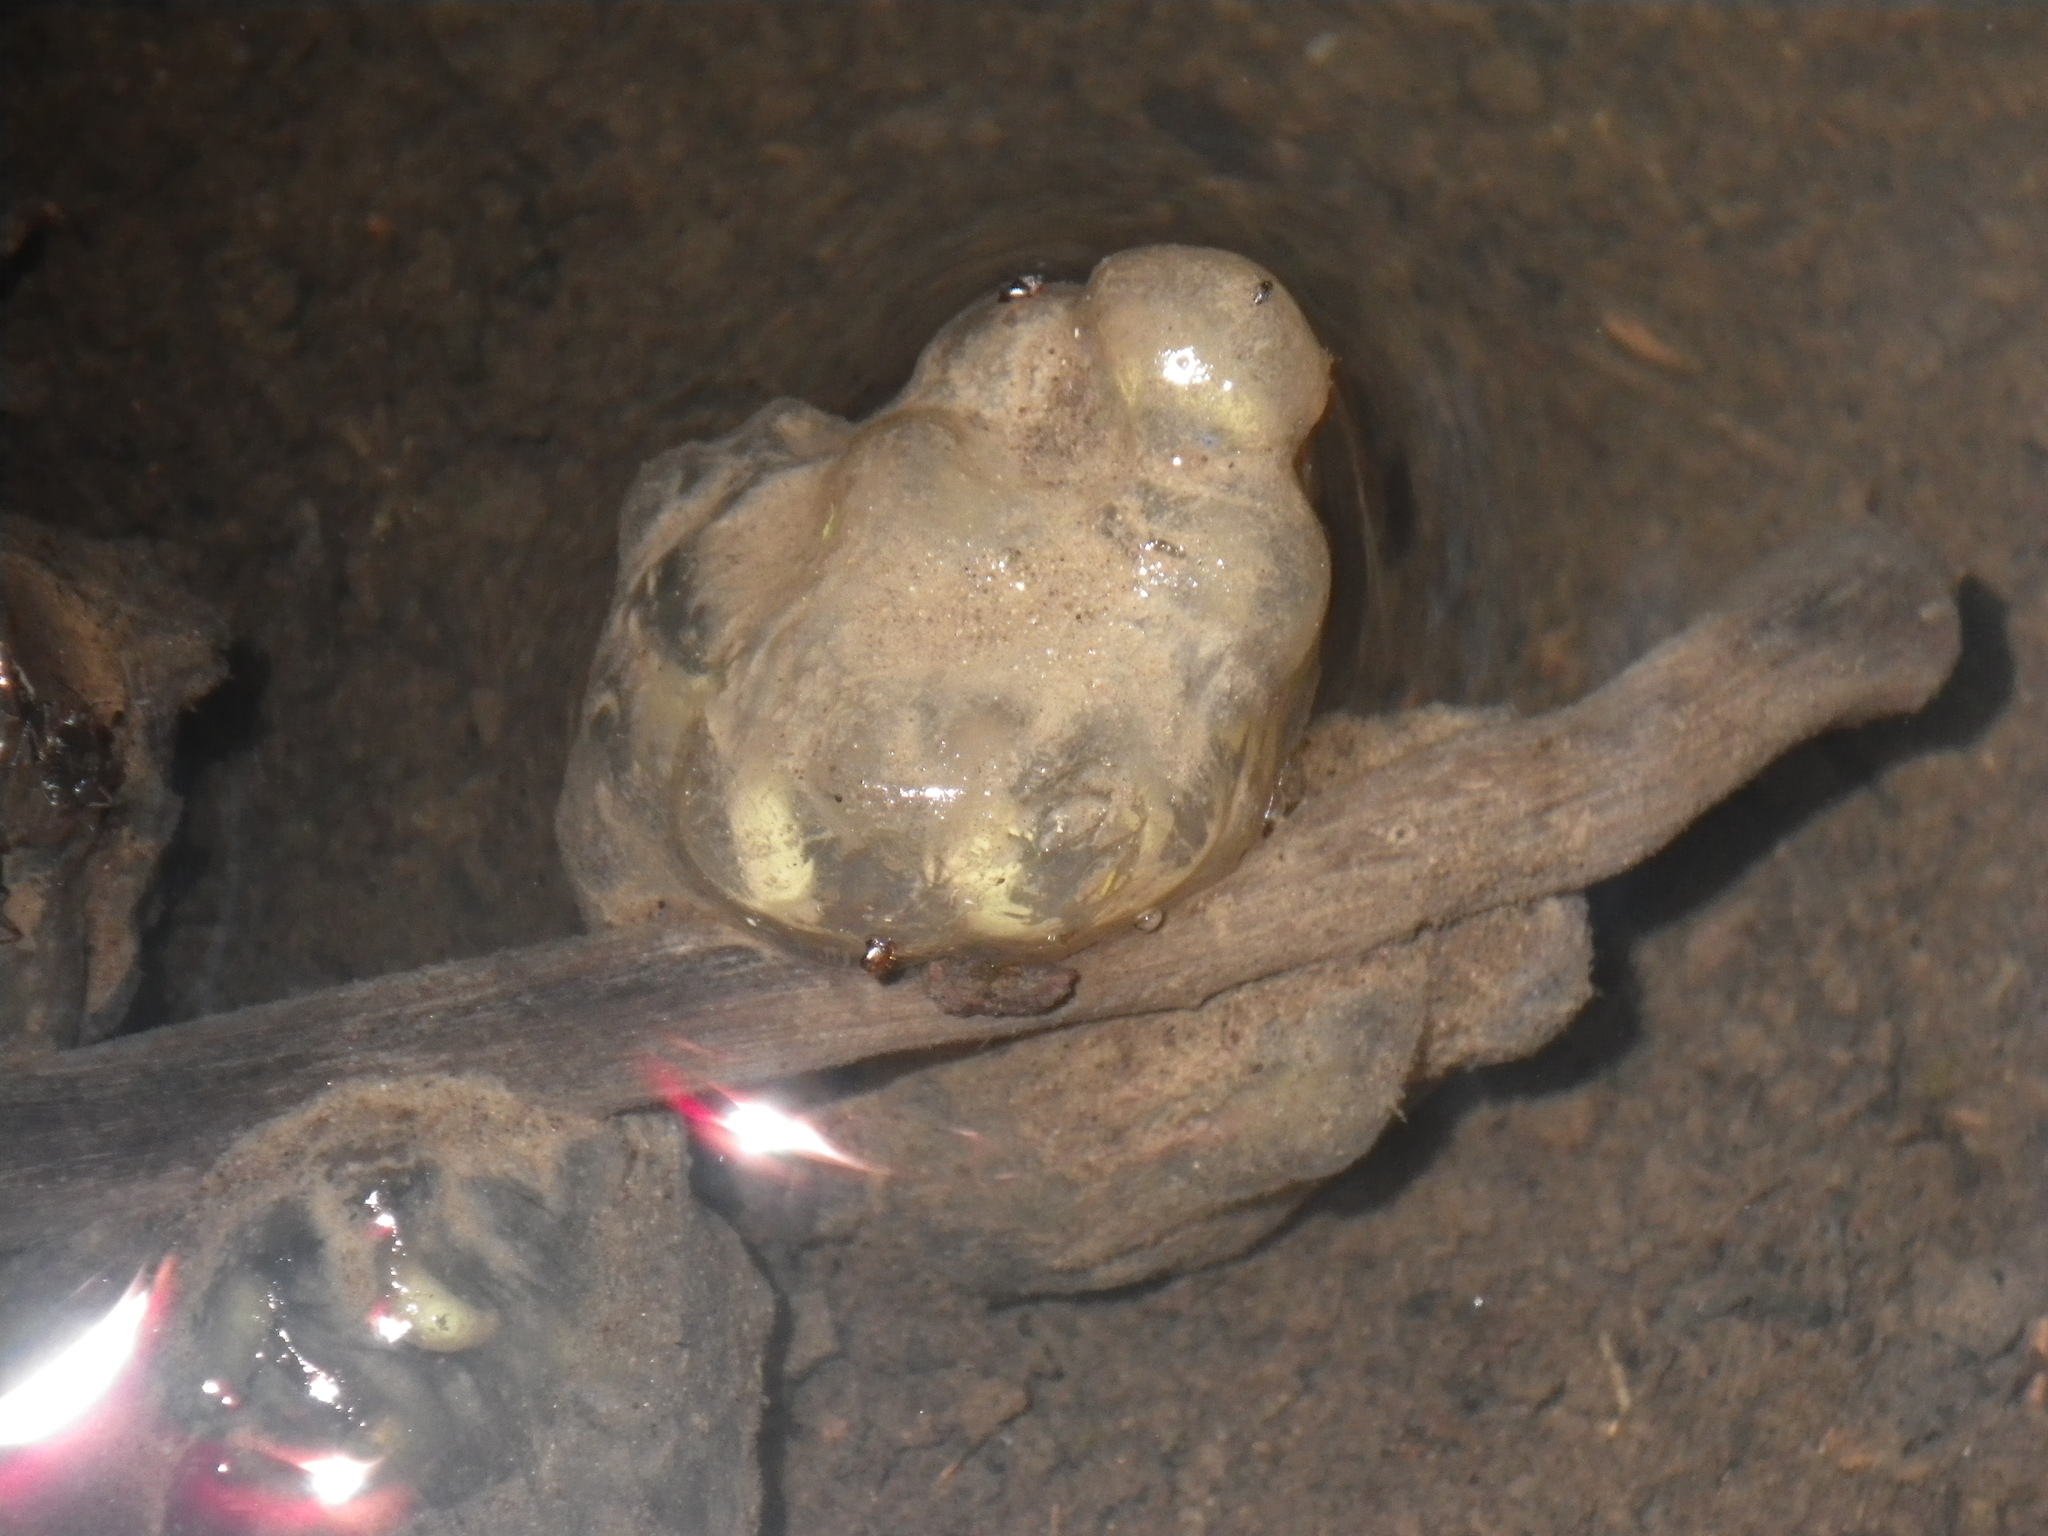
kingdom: Animalia
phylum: Chordata
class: Amphibia
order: Caudata
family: Salamandridae
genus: Taricha
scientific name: Taricha torosa
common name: California newt
